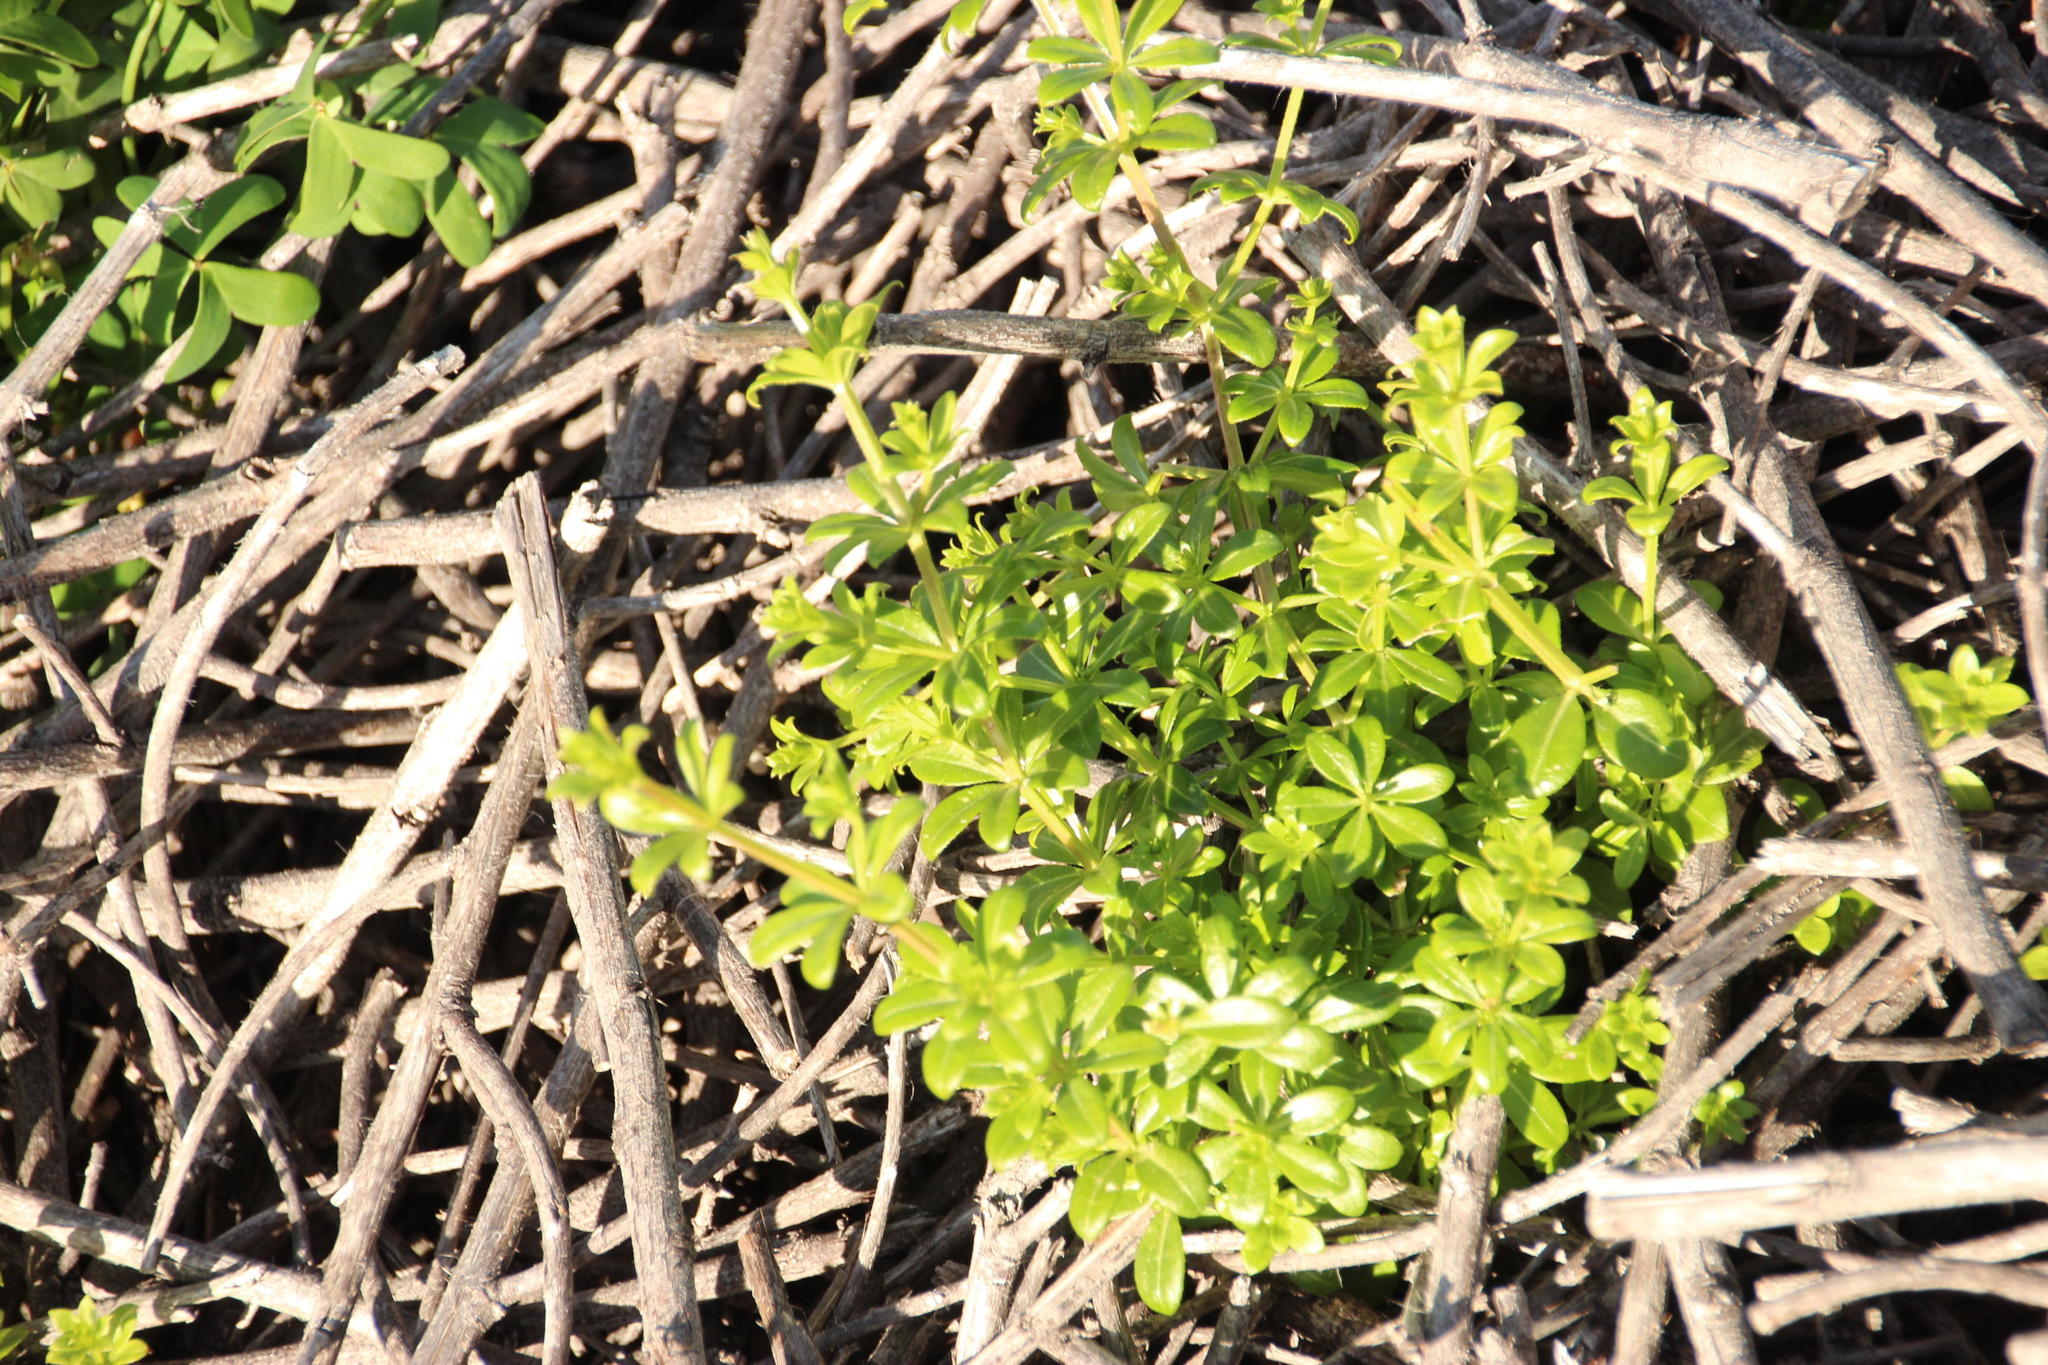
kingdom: Plantae
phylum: Tracheophyta
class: Magnoliopsida
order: Gentianales
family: Rubiaceae
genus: Galium
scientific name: Galium tomentosum
